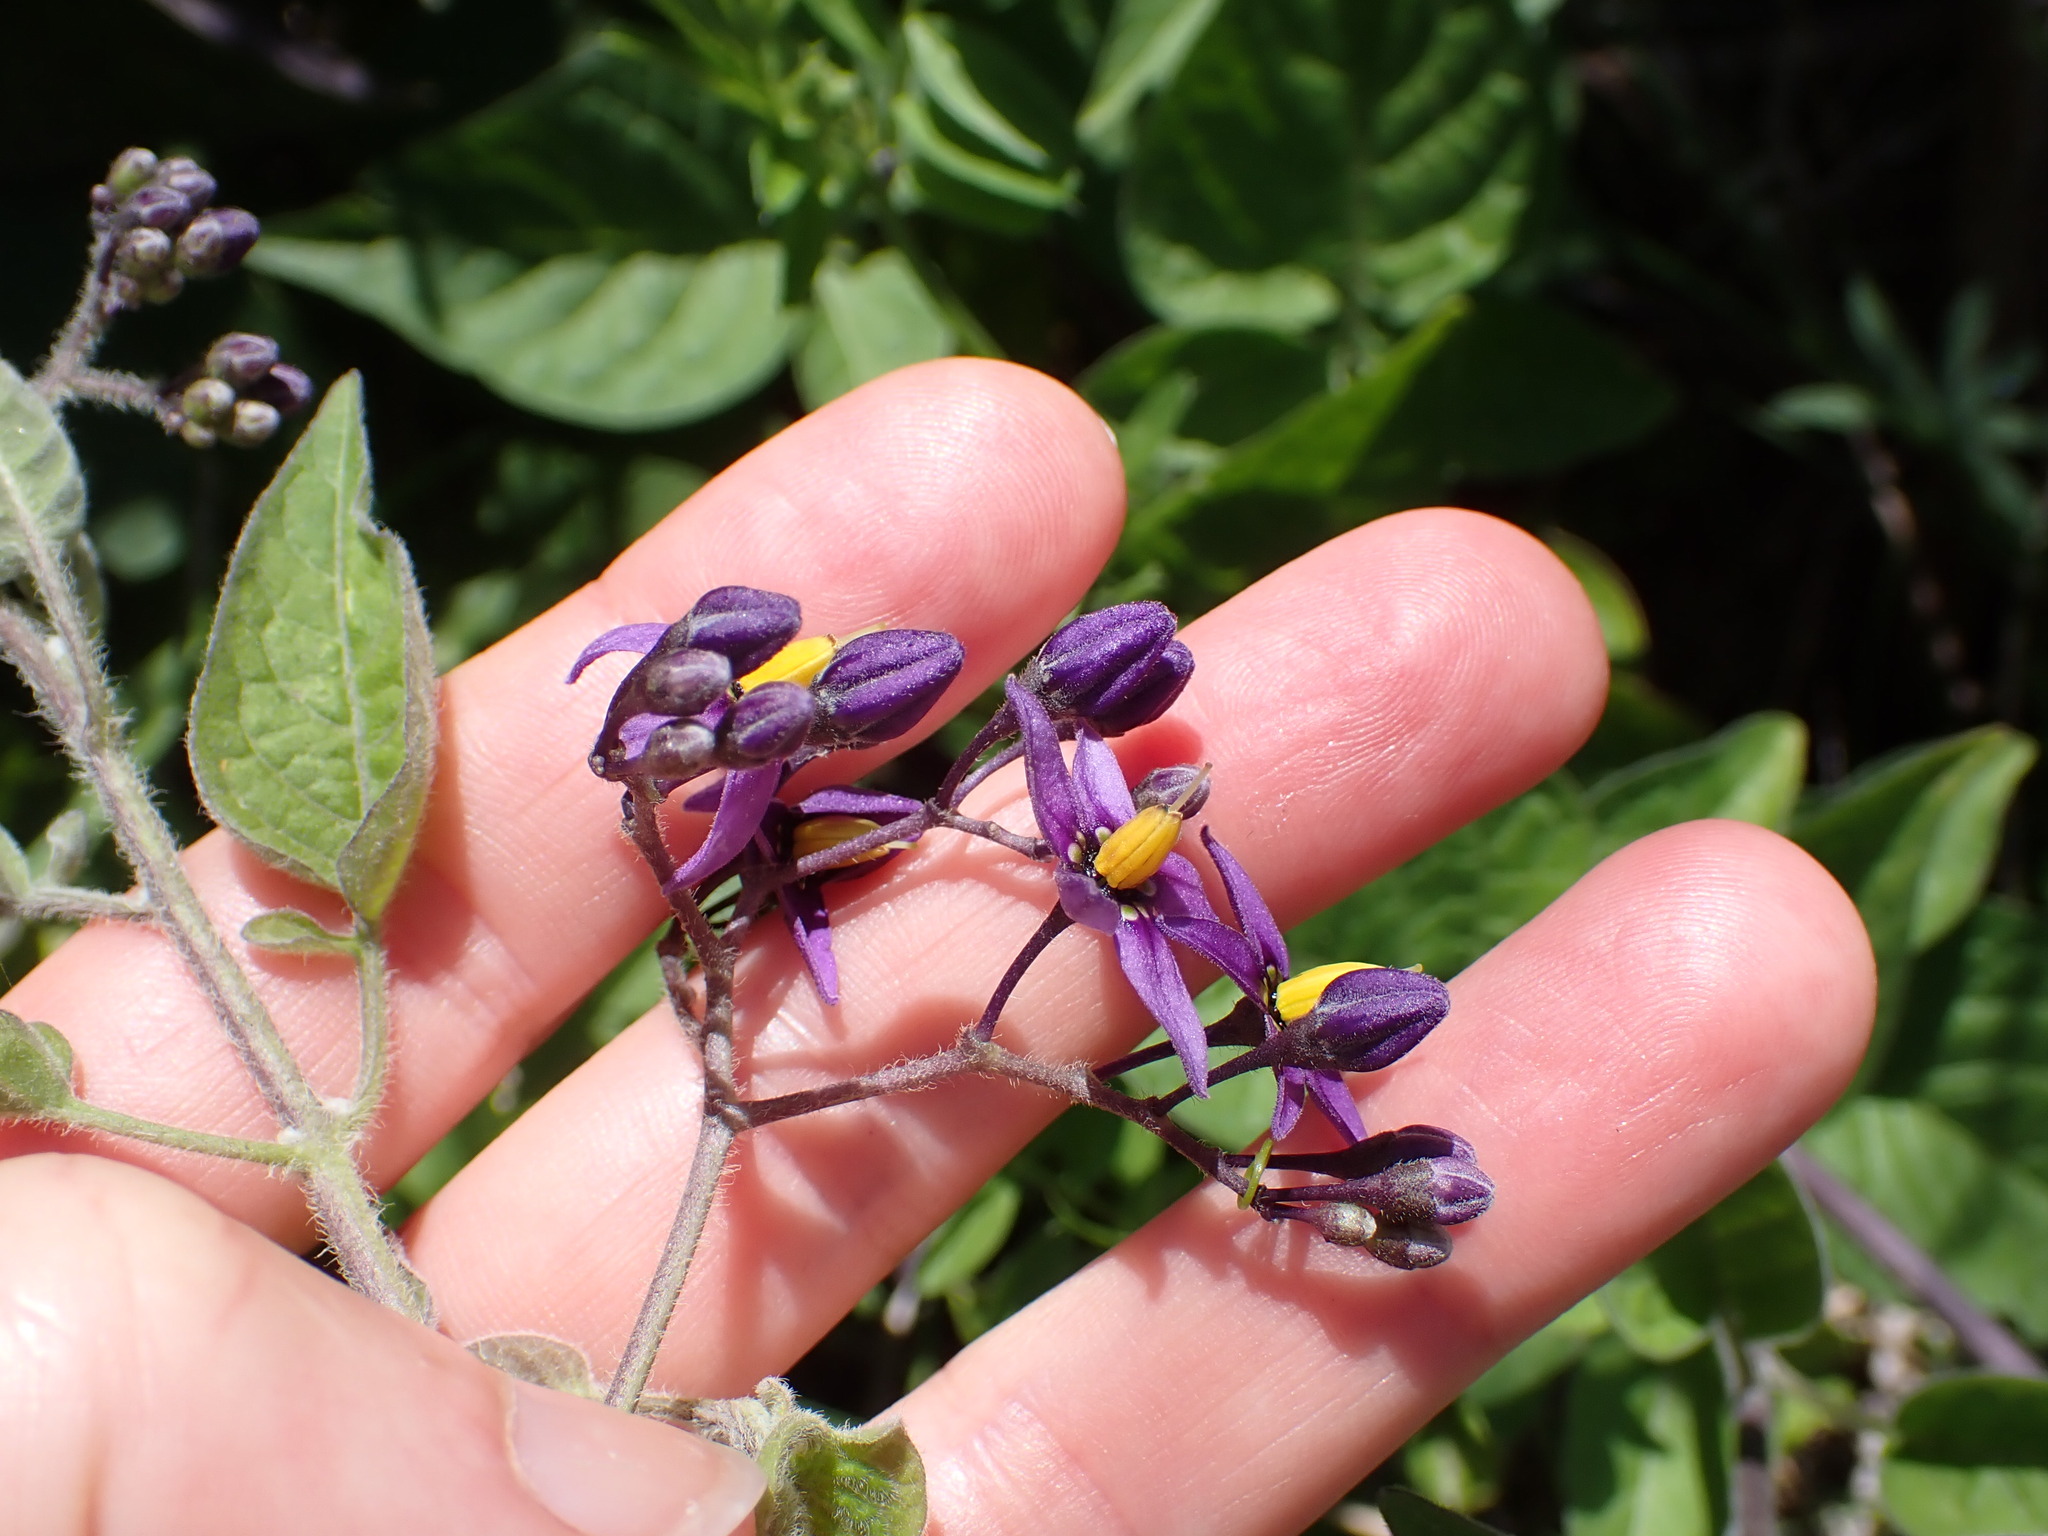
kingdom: Plantae
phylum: Tracheophyta
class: Magnoliopsida
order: Solanales
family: Solanaceae
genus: Solanum
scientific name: Solanum dulcamara
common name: Climbing nightshade
